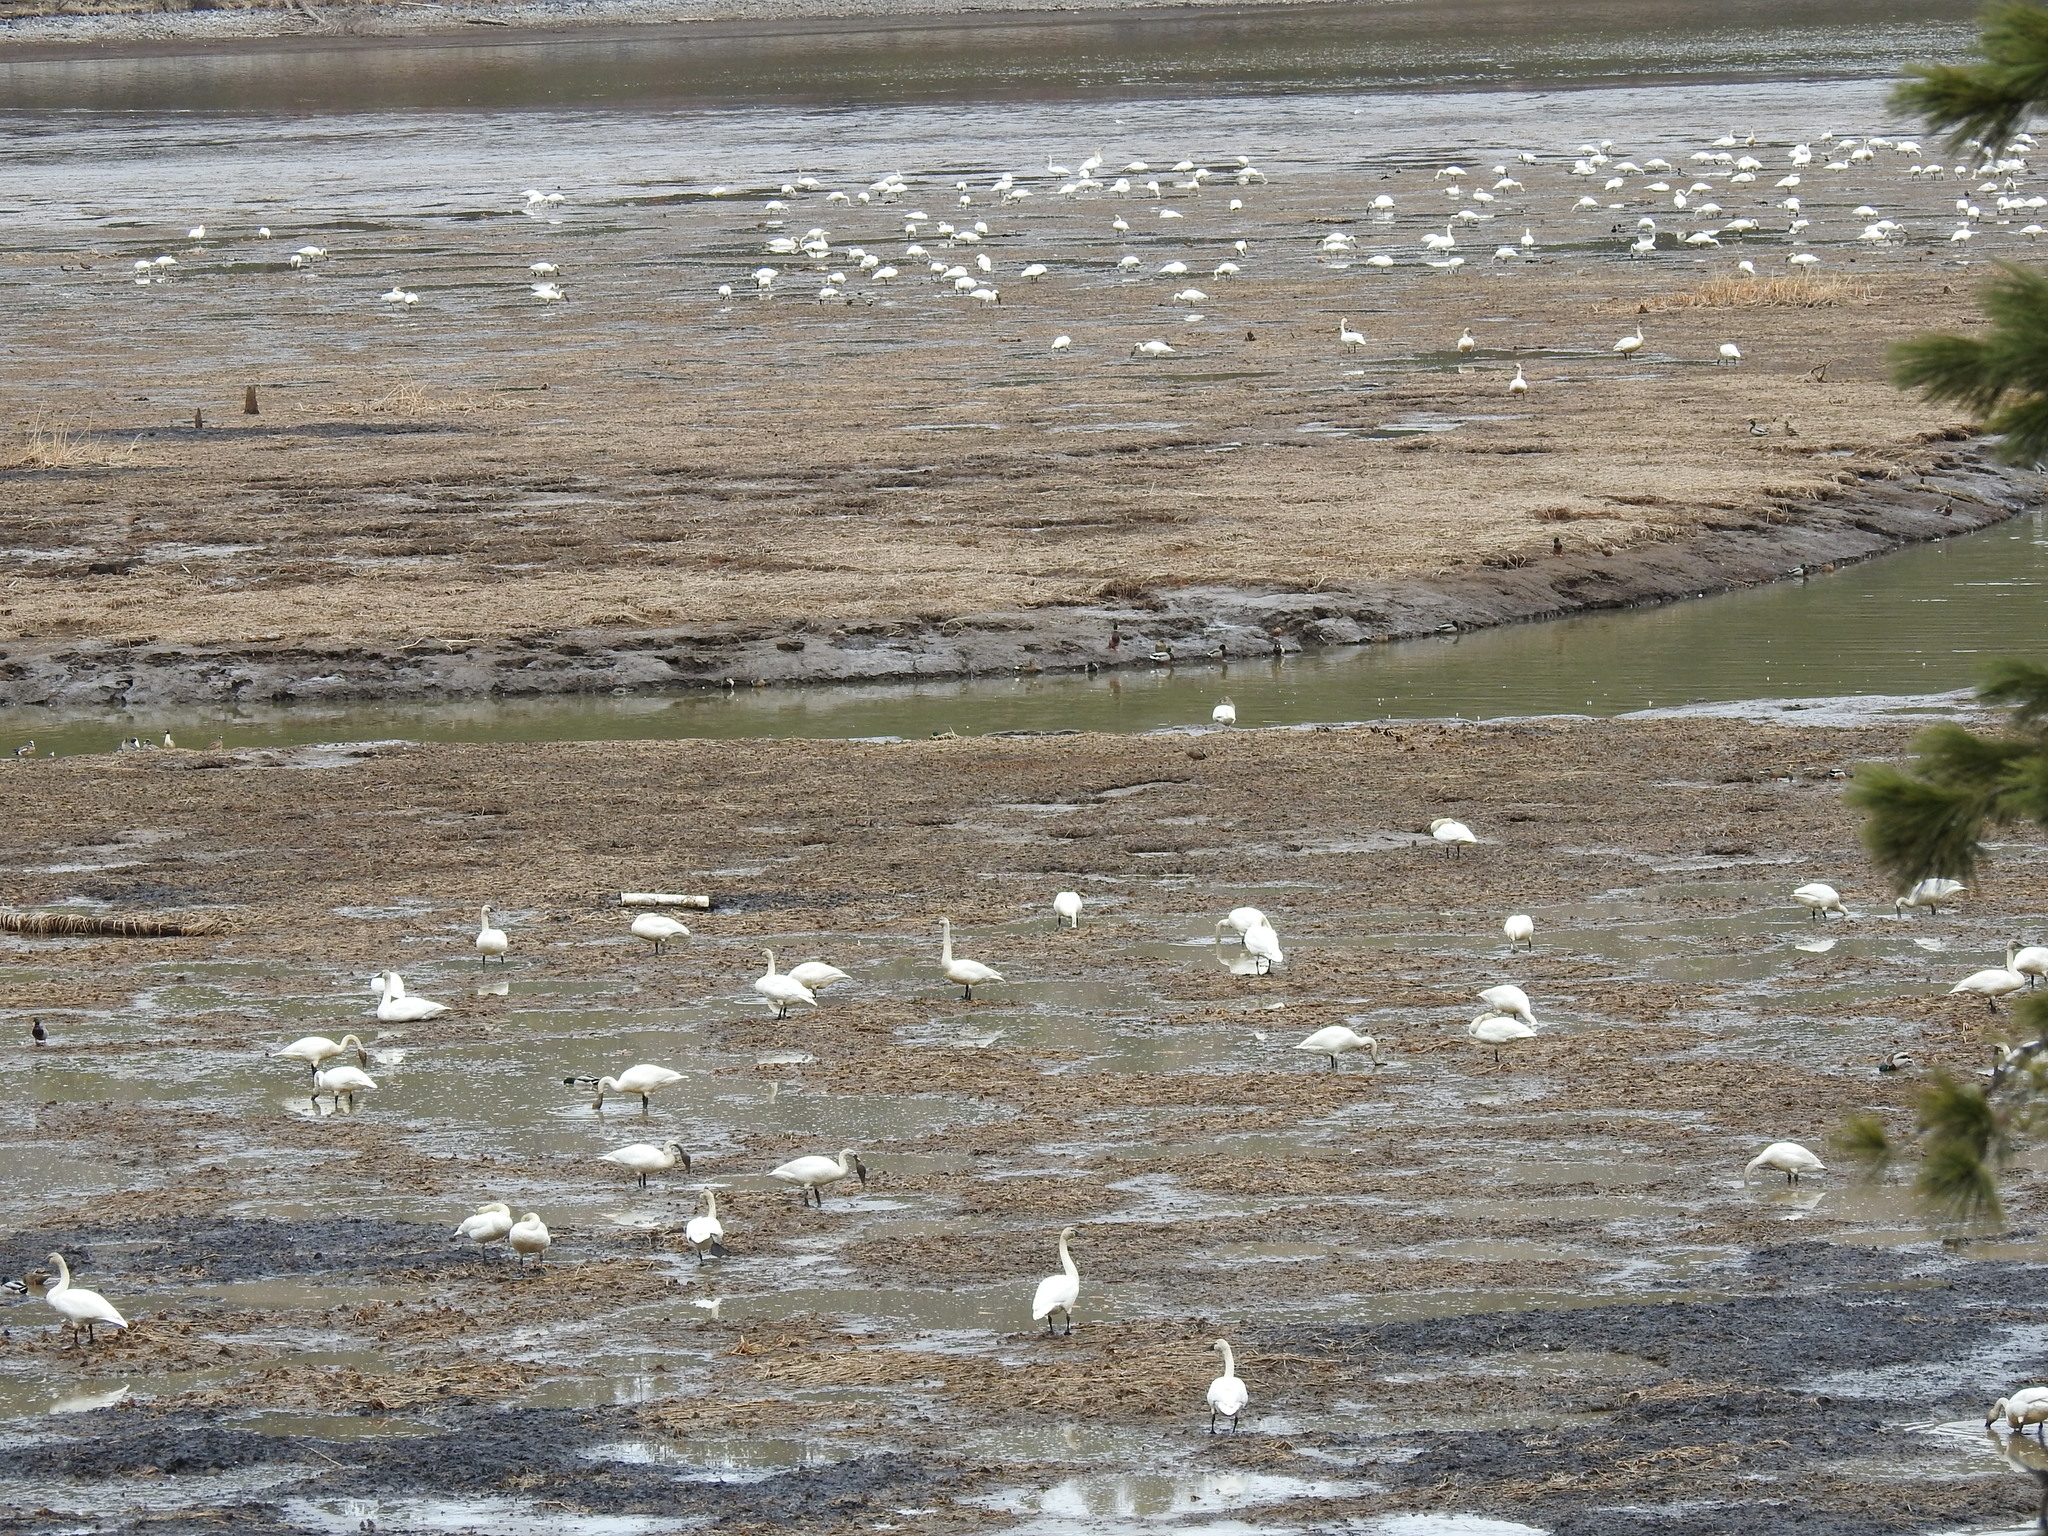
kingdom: Animalia
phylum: Chordata
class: Aves
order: Anseriformes
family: Anatidae
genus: Cygnus
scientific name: Cygnus columbianus
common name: Tundra swan
